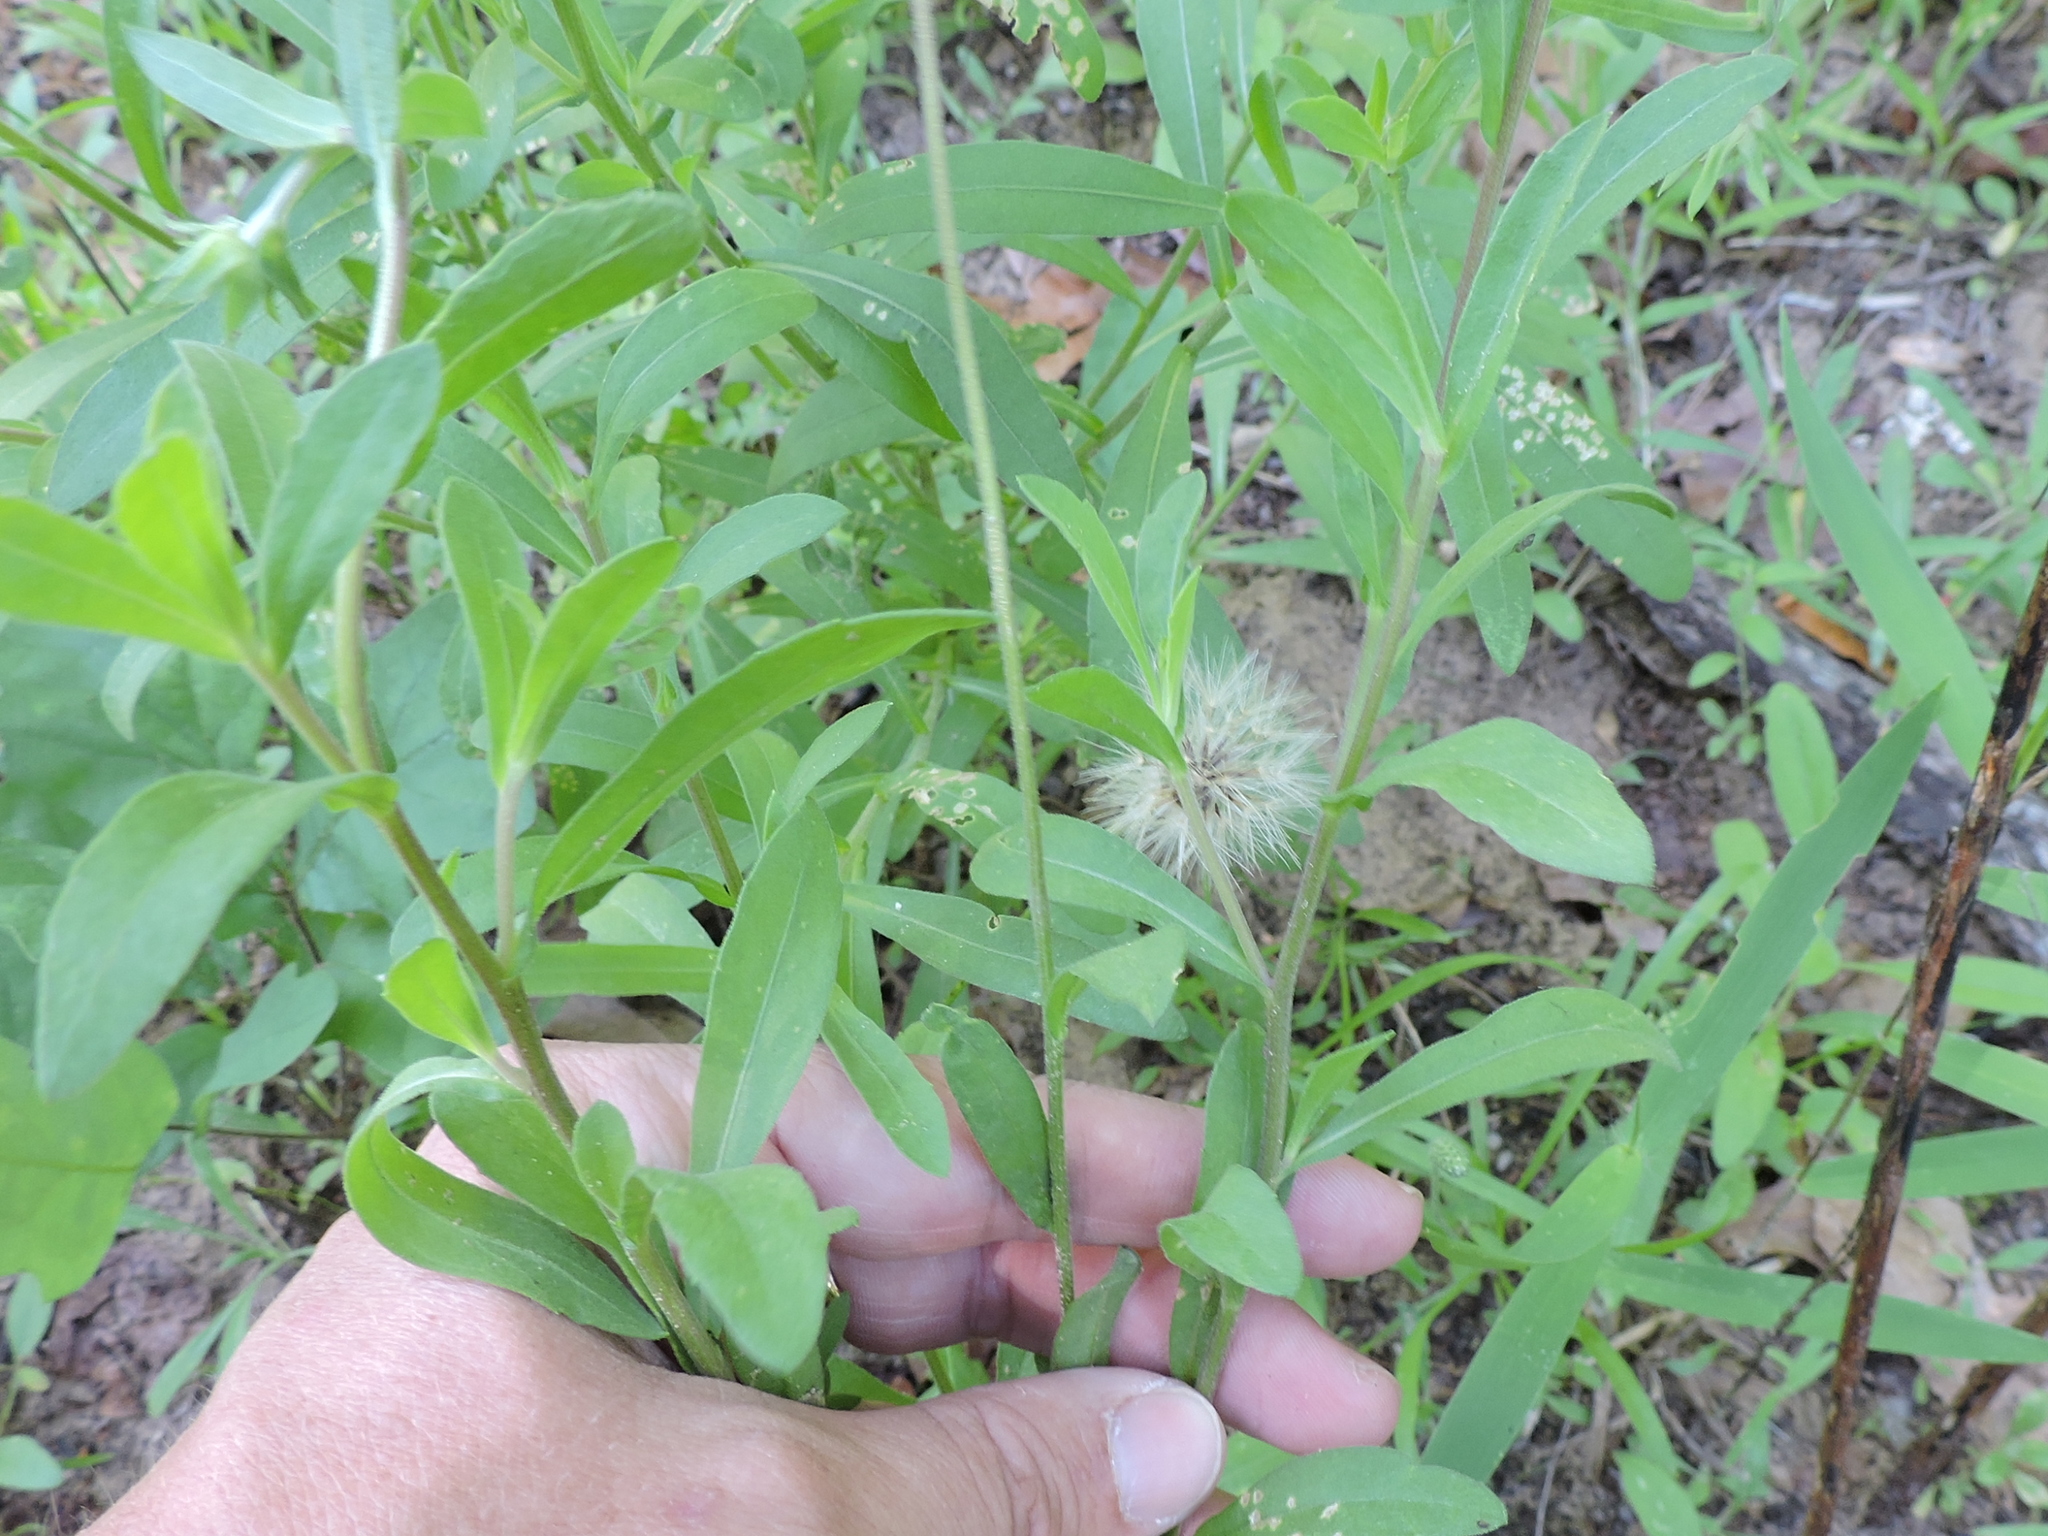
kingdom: Plantae
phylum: Tracheophyta
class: Magnoliopsida
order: Asterales
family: Asteraceae
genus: Gaillardia
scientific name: Gaillardia aestivalis
